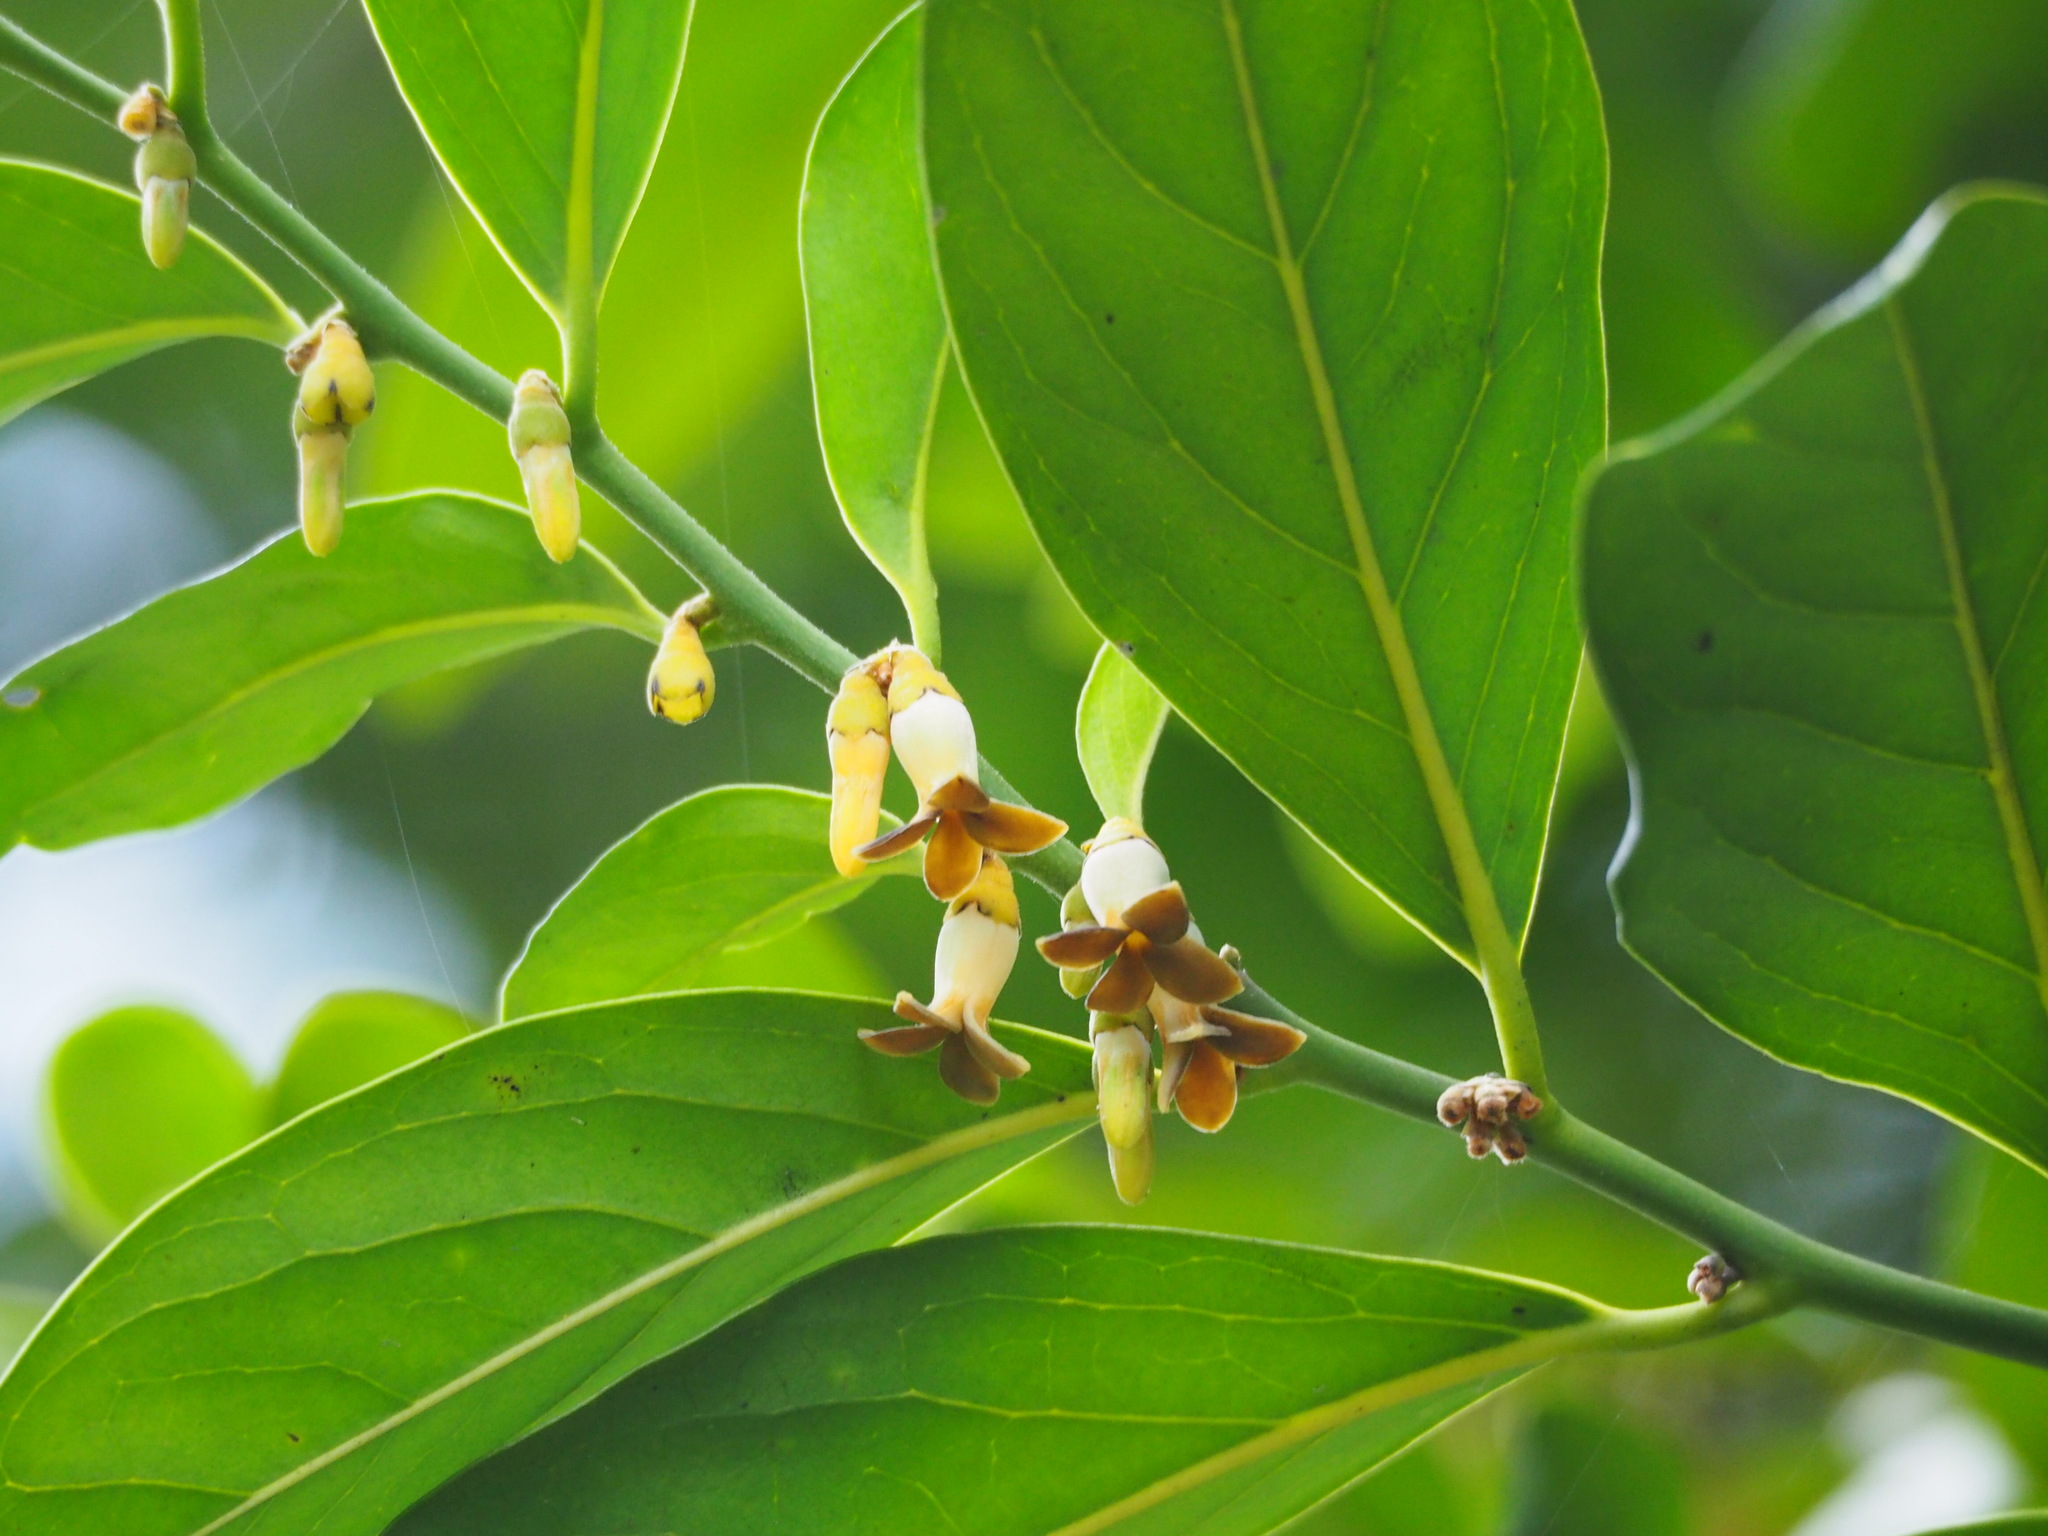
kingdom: Plantae
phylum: Tracheophyta
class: Magnoliopsida
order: Ericales
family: Ebenaceae
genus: Diospyros
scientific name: Diospyros maritima
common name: Malaysian persimmon
